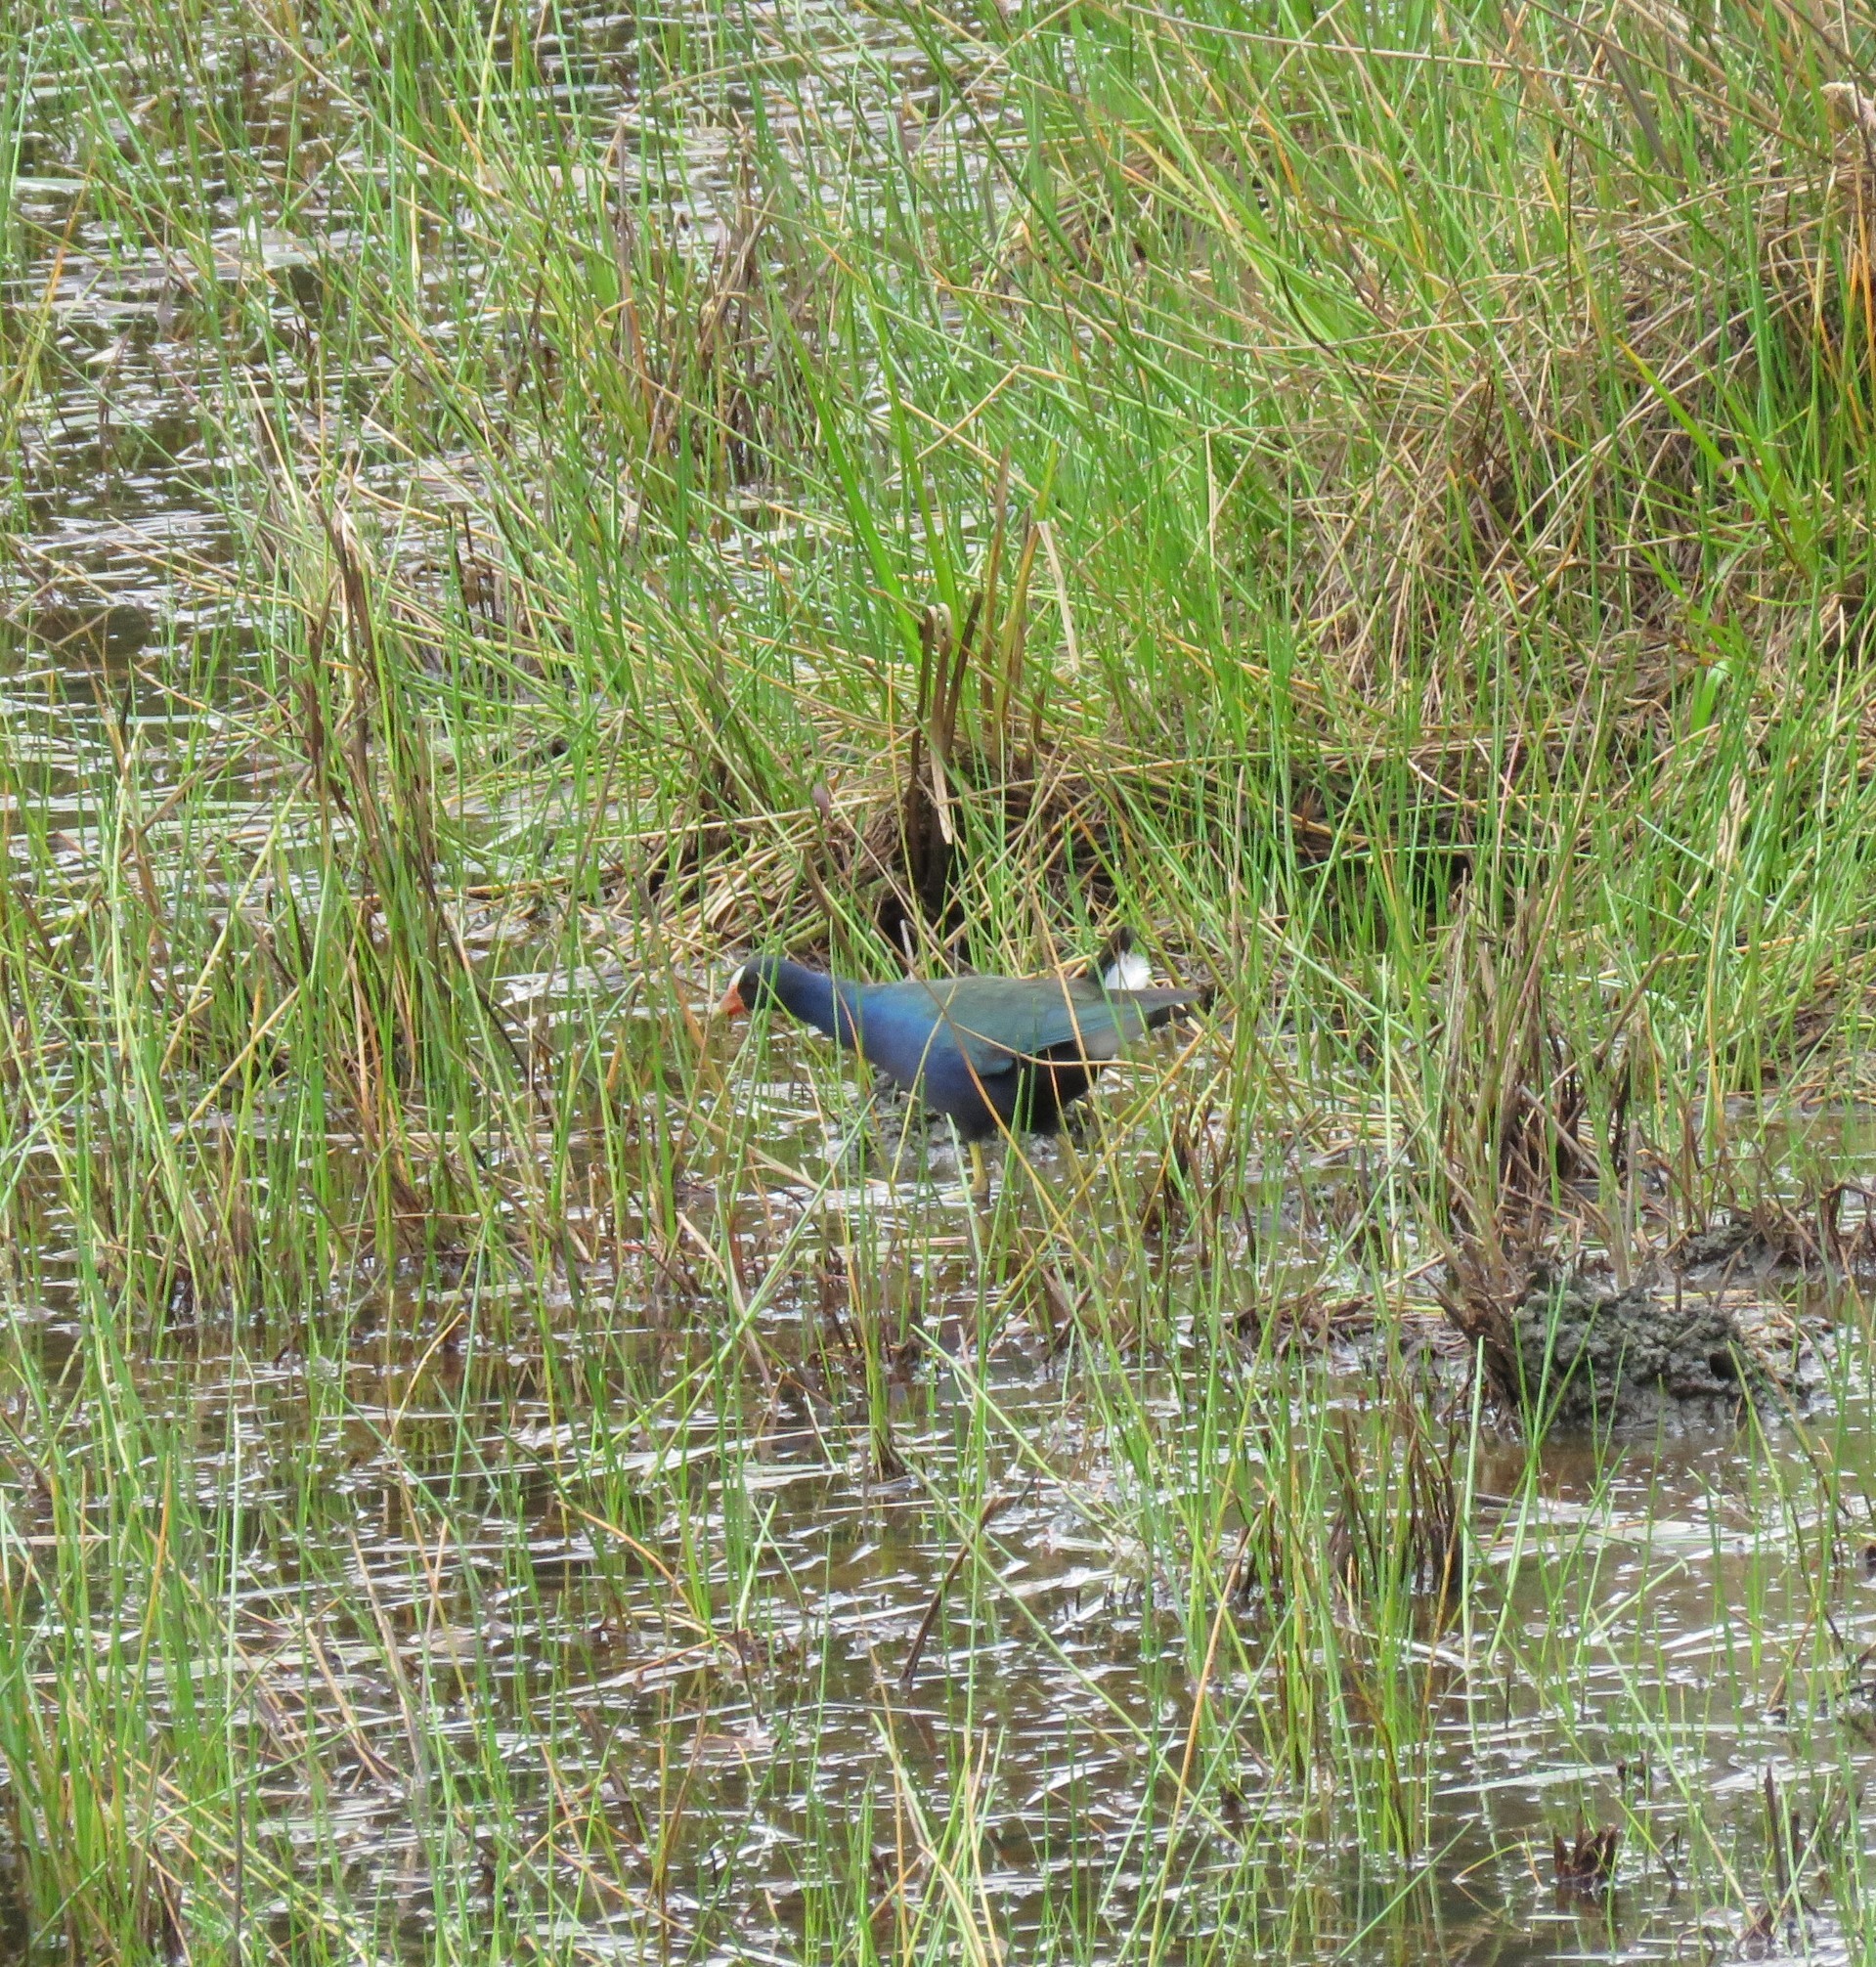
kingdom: Animalia
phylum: Chordata
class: Aves
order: Gruiformes
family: Rallidae
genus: Porphyrio
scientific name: Porphyrio martinica
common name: Purple gallinule
